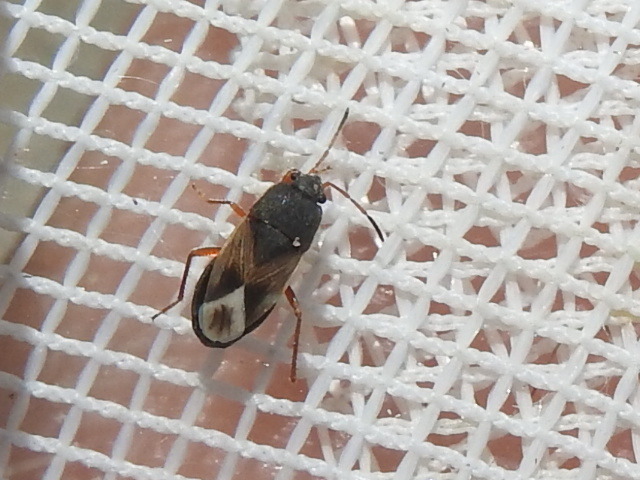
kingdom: Animalia
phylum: Arthropoda
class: Insecta
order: Hemiptera
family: Rhyparochromidae
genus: Malezonotus
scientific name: Malezonotus rufipes
